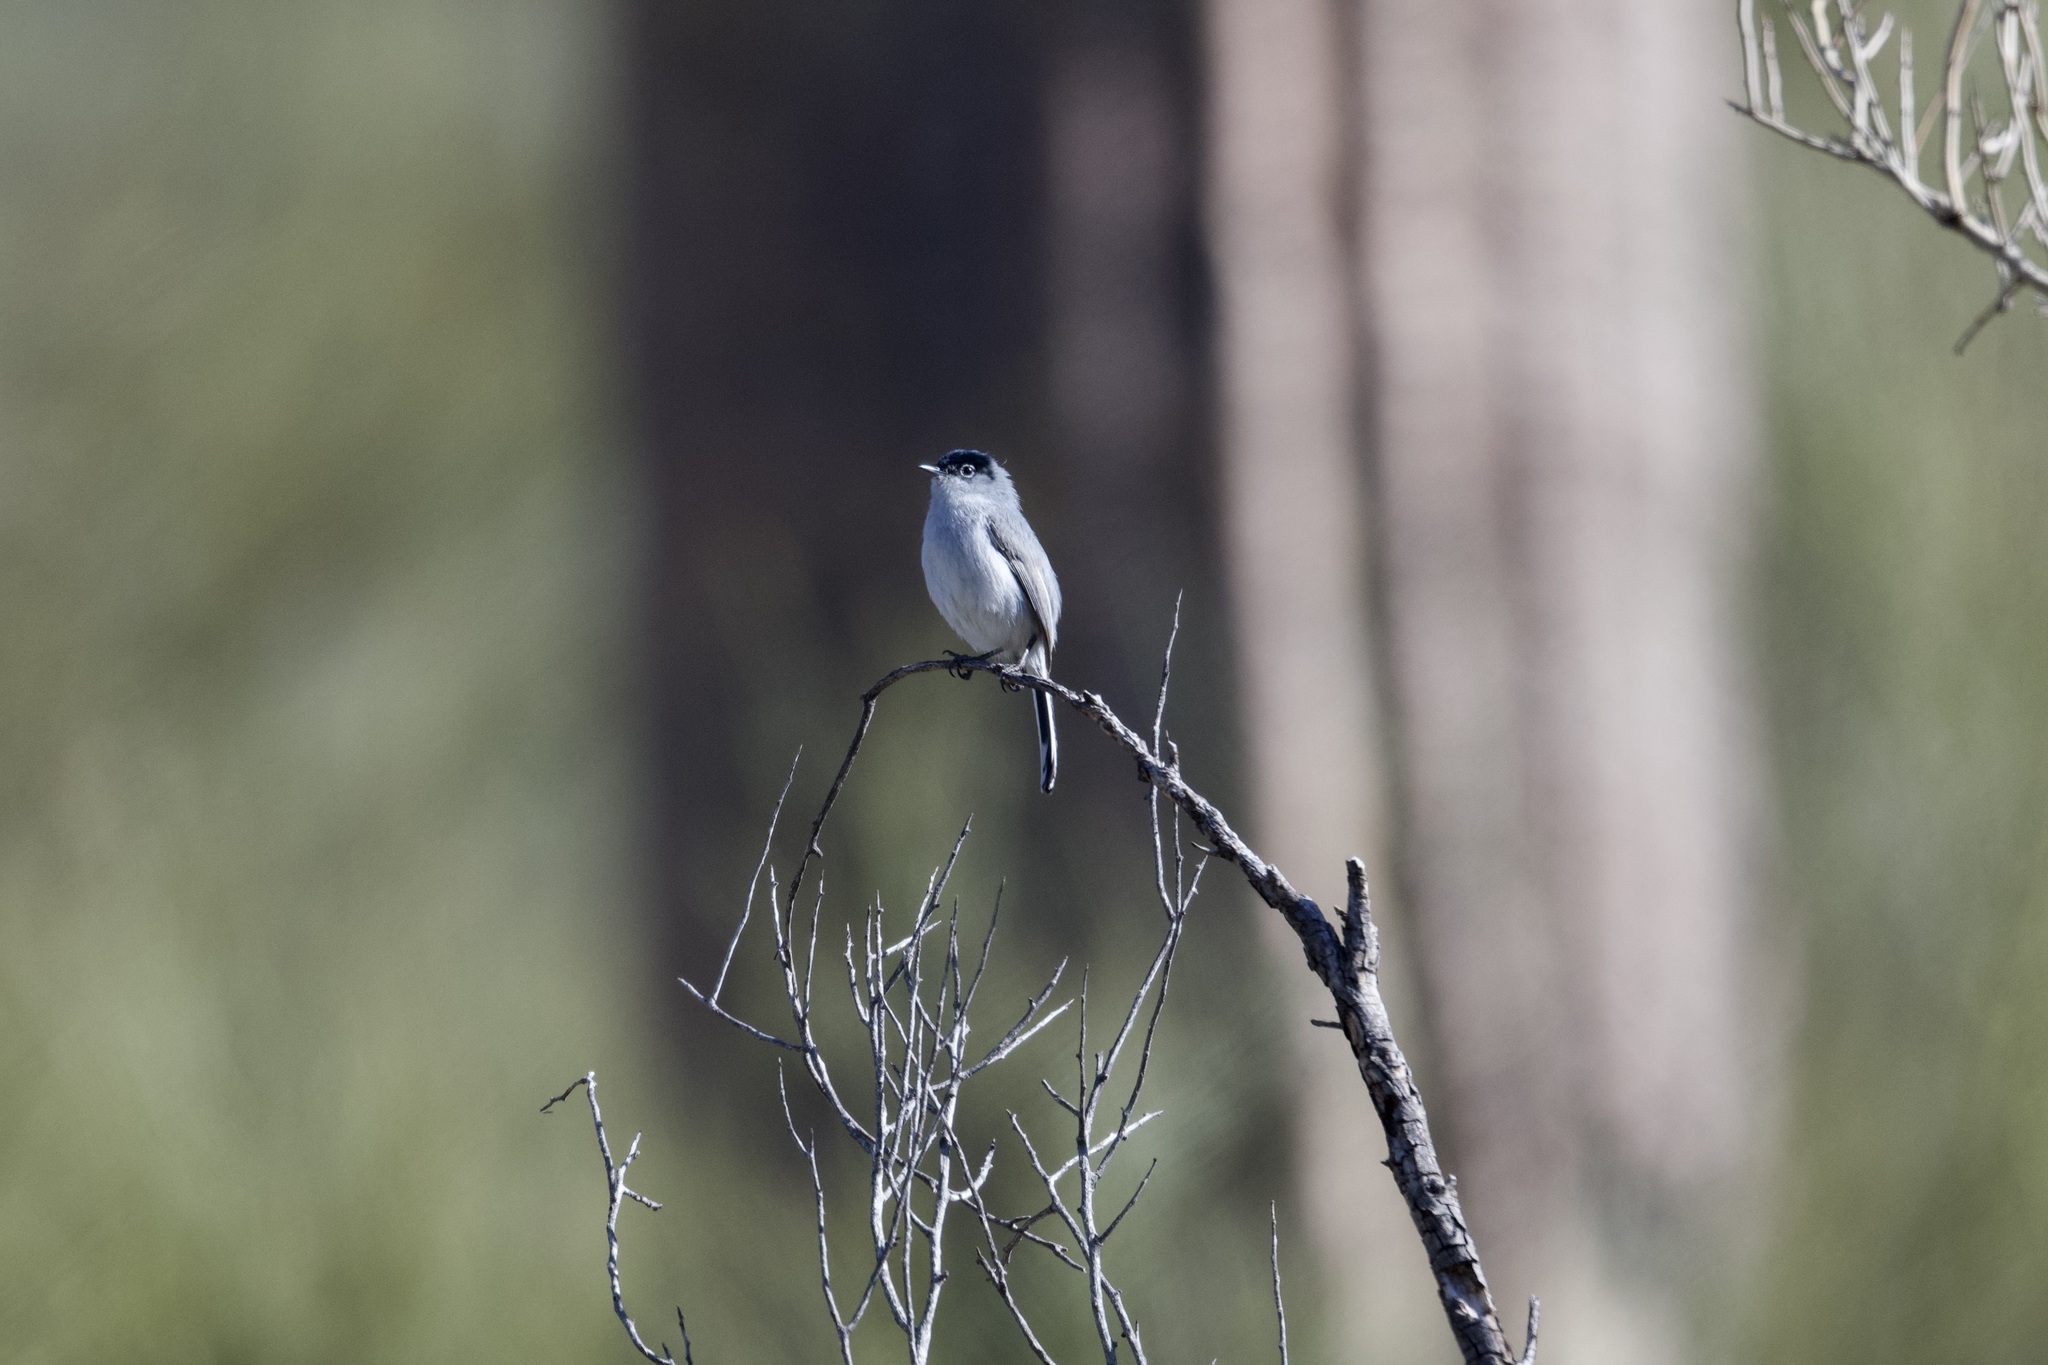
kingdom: Animalia
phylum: Chordata
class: Aves
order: Passeriformes
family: Polioptilidae
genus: Polioptila
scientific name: Polioptila melanura
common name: Black-tailed gnatcatcher
